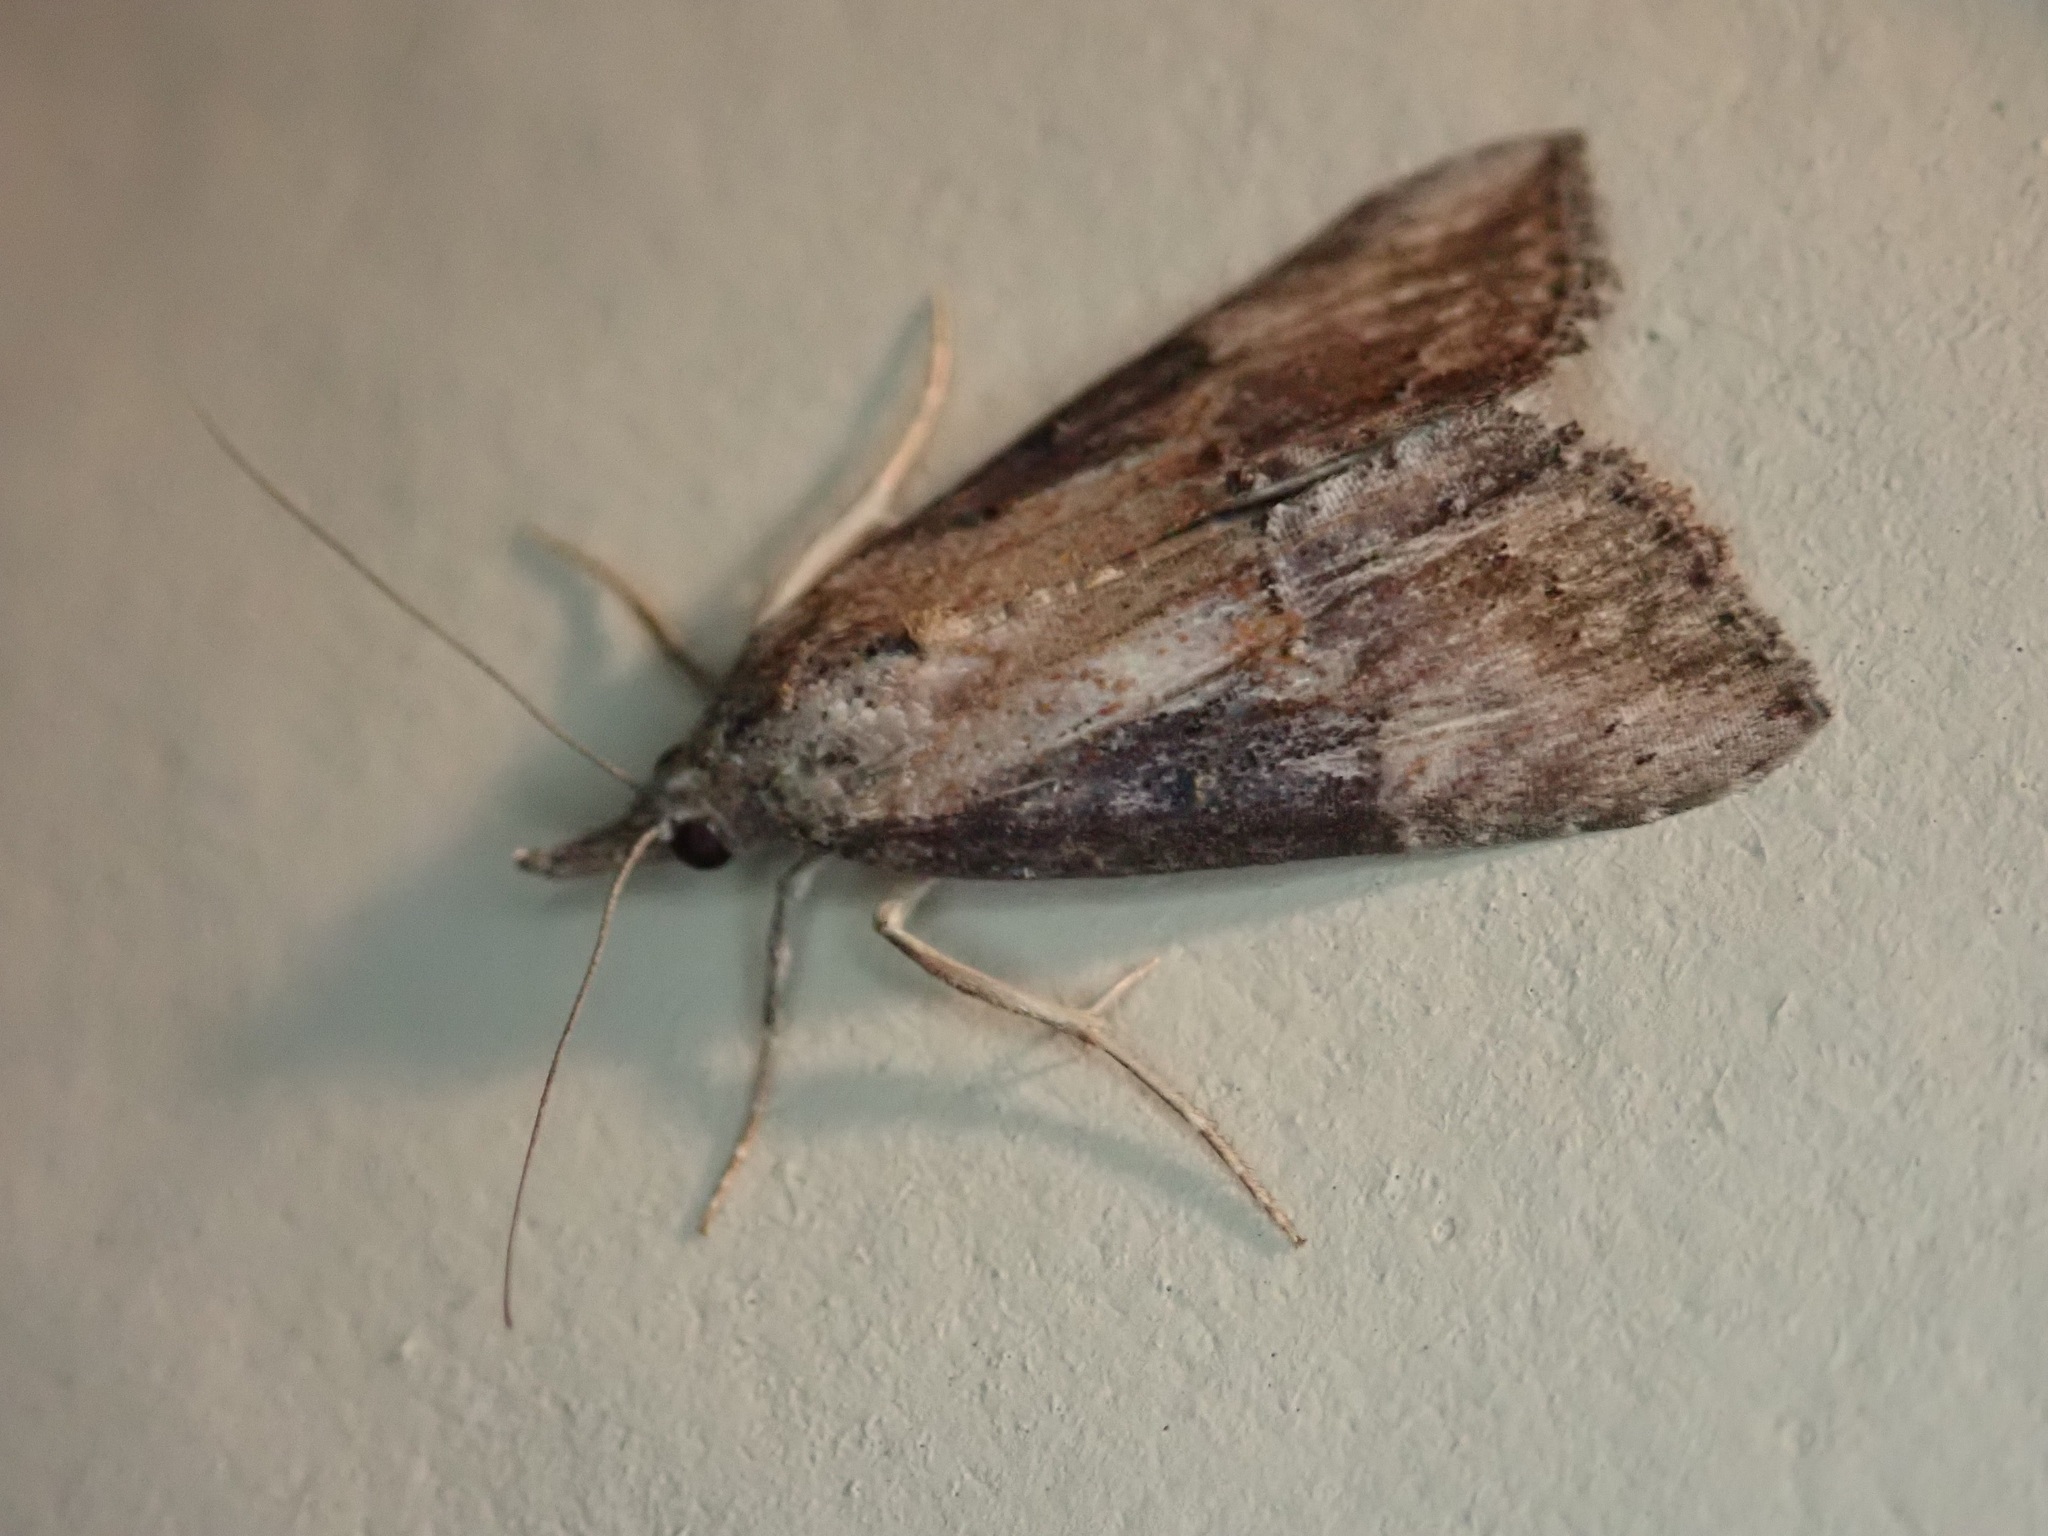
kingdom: Animalia
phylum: Arthropoda
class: Insecta
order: Lepidoptera
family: Erebidae
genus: Hypena
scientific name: Hypena scabra
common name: Green cloverworm
